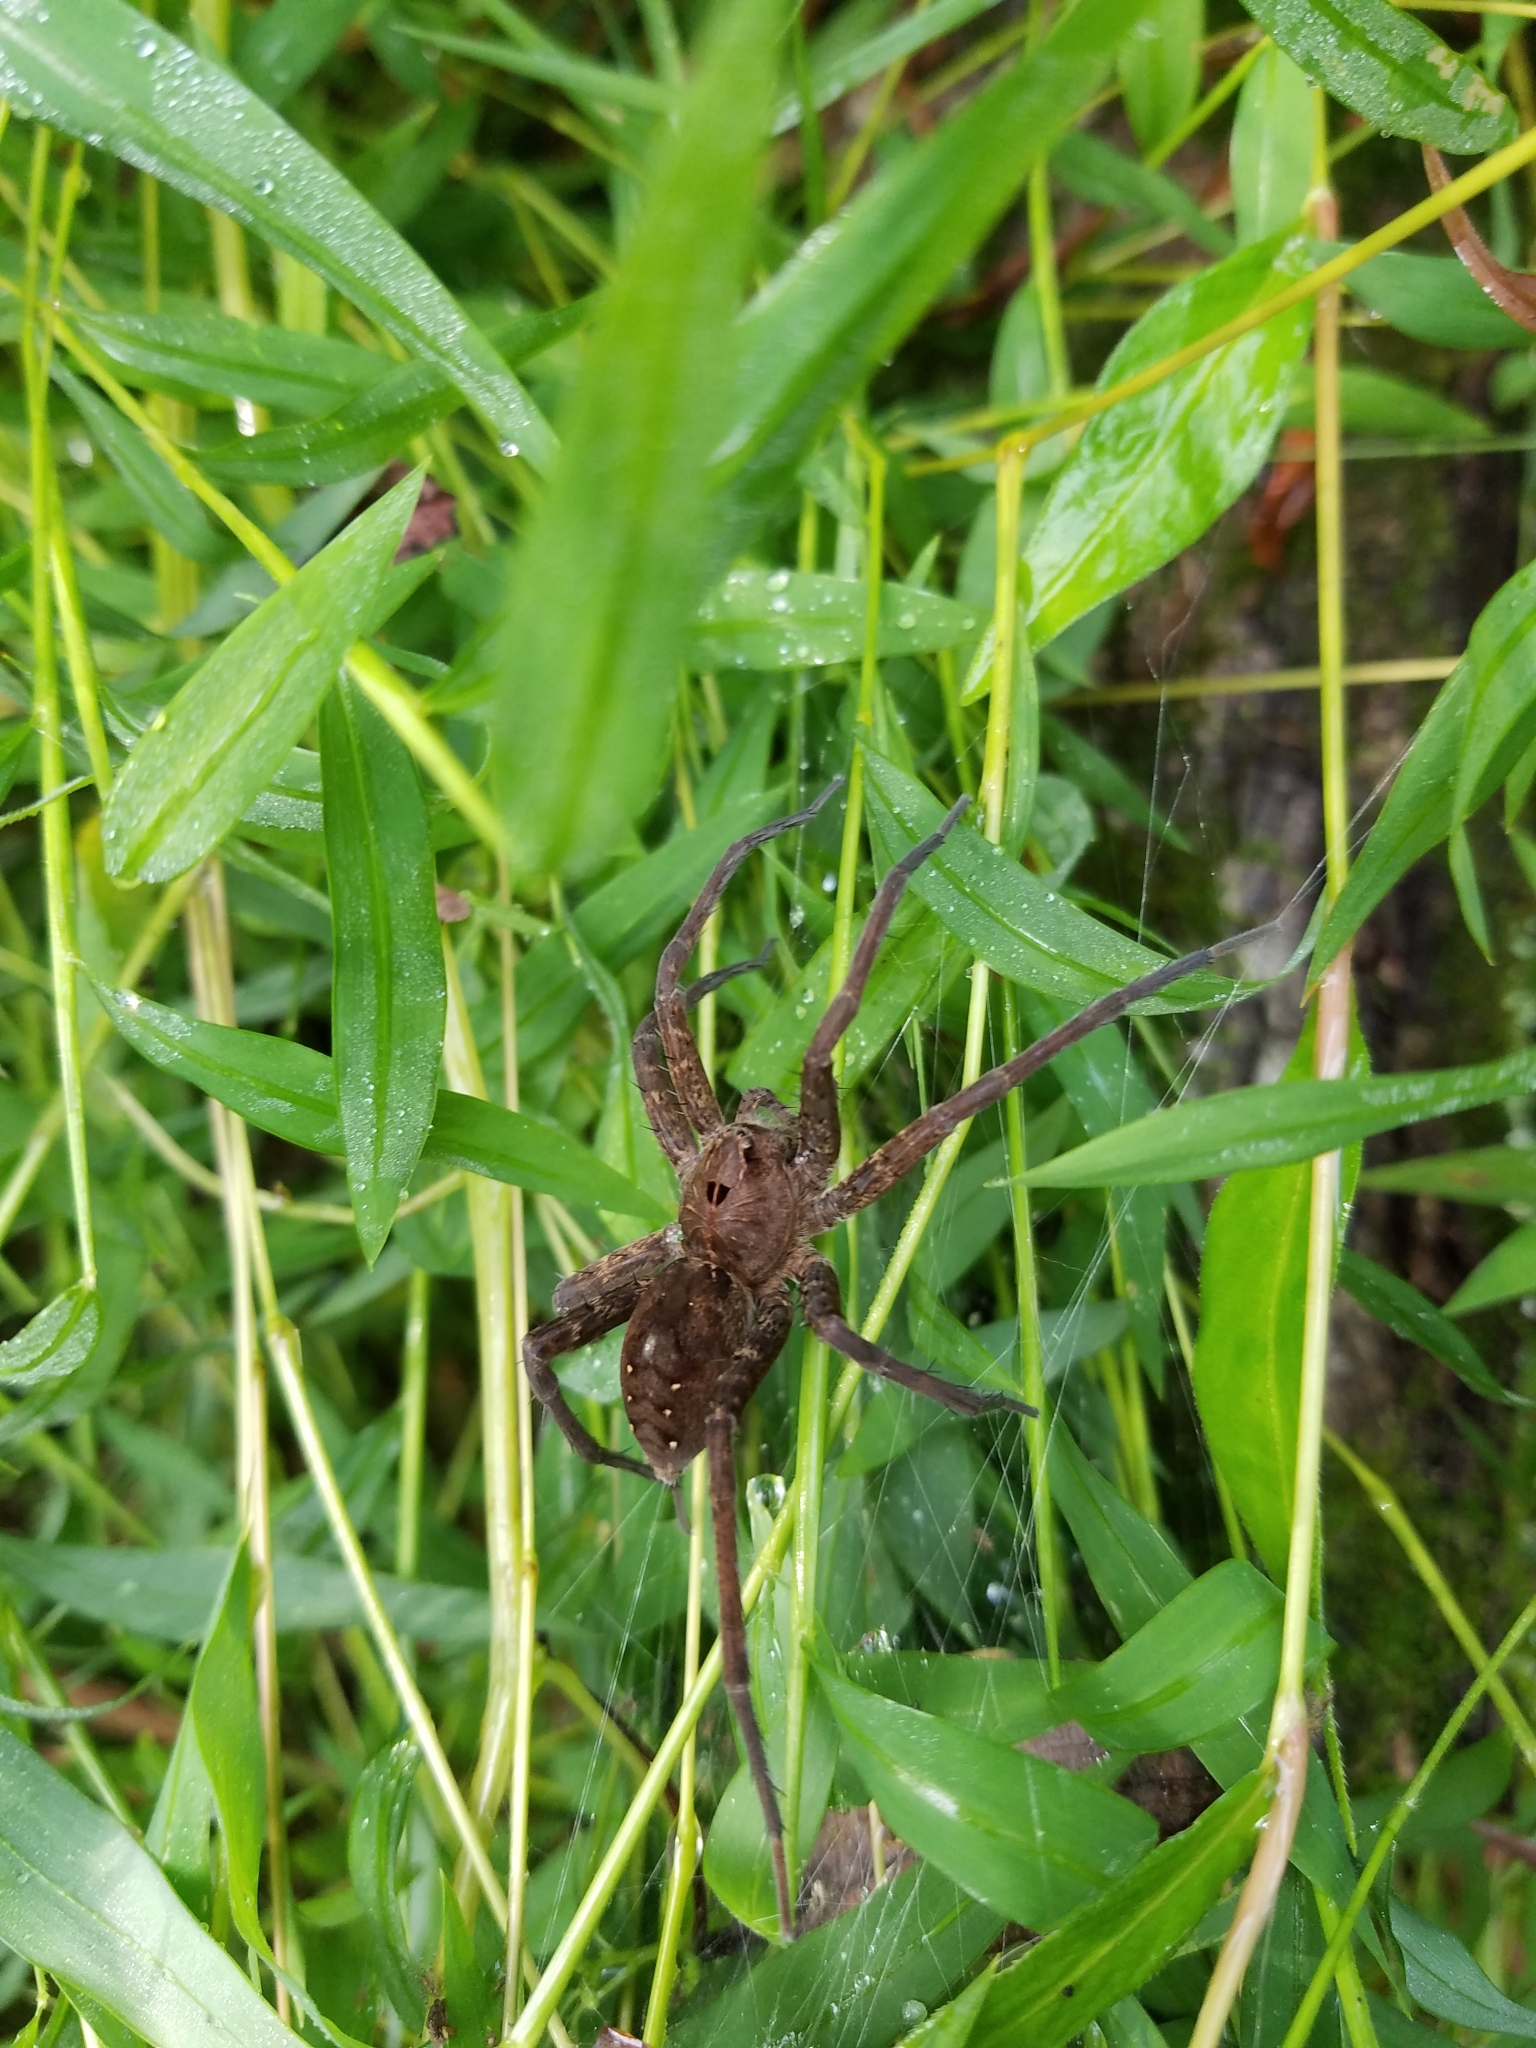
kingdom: Animalia
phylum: Arthropoda
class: Arachnida
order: Araneae
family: Pisauridae
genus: Dolomedes
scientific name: Dolomedes vittatus
